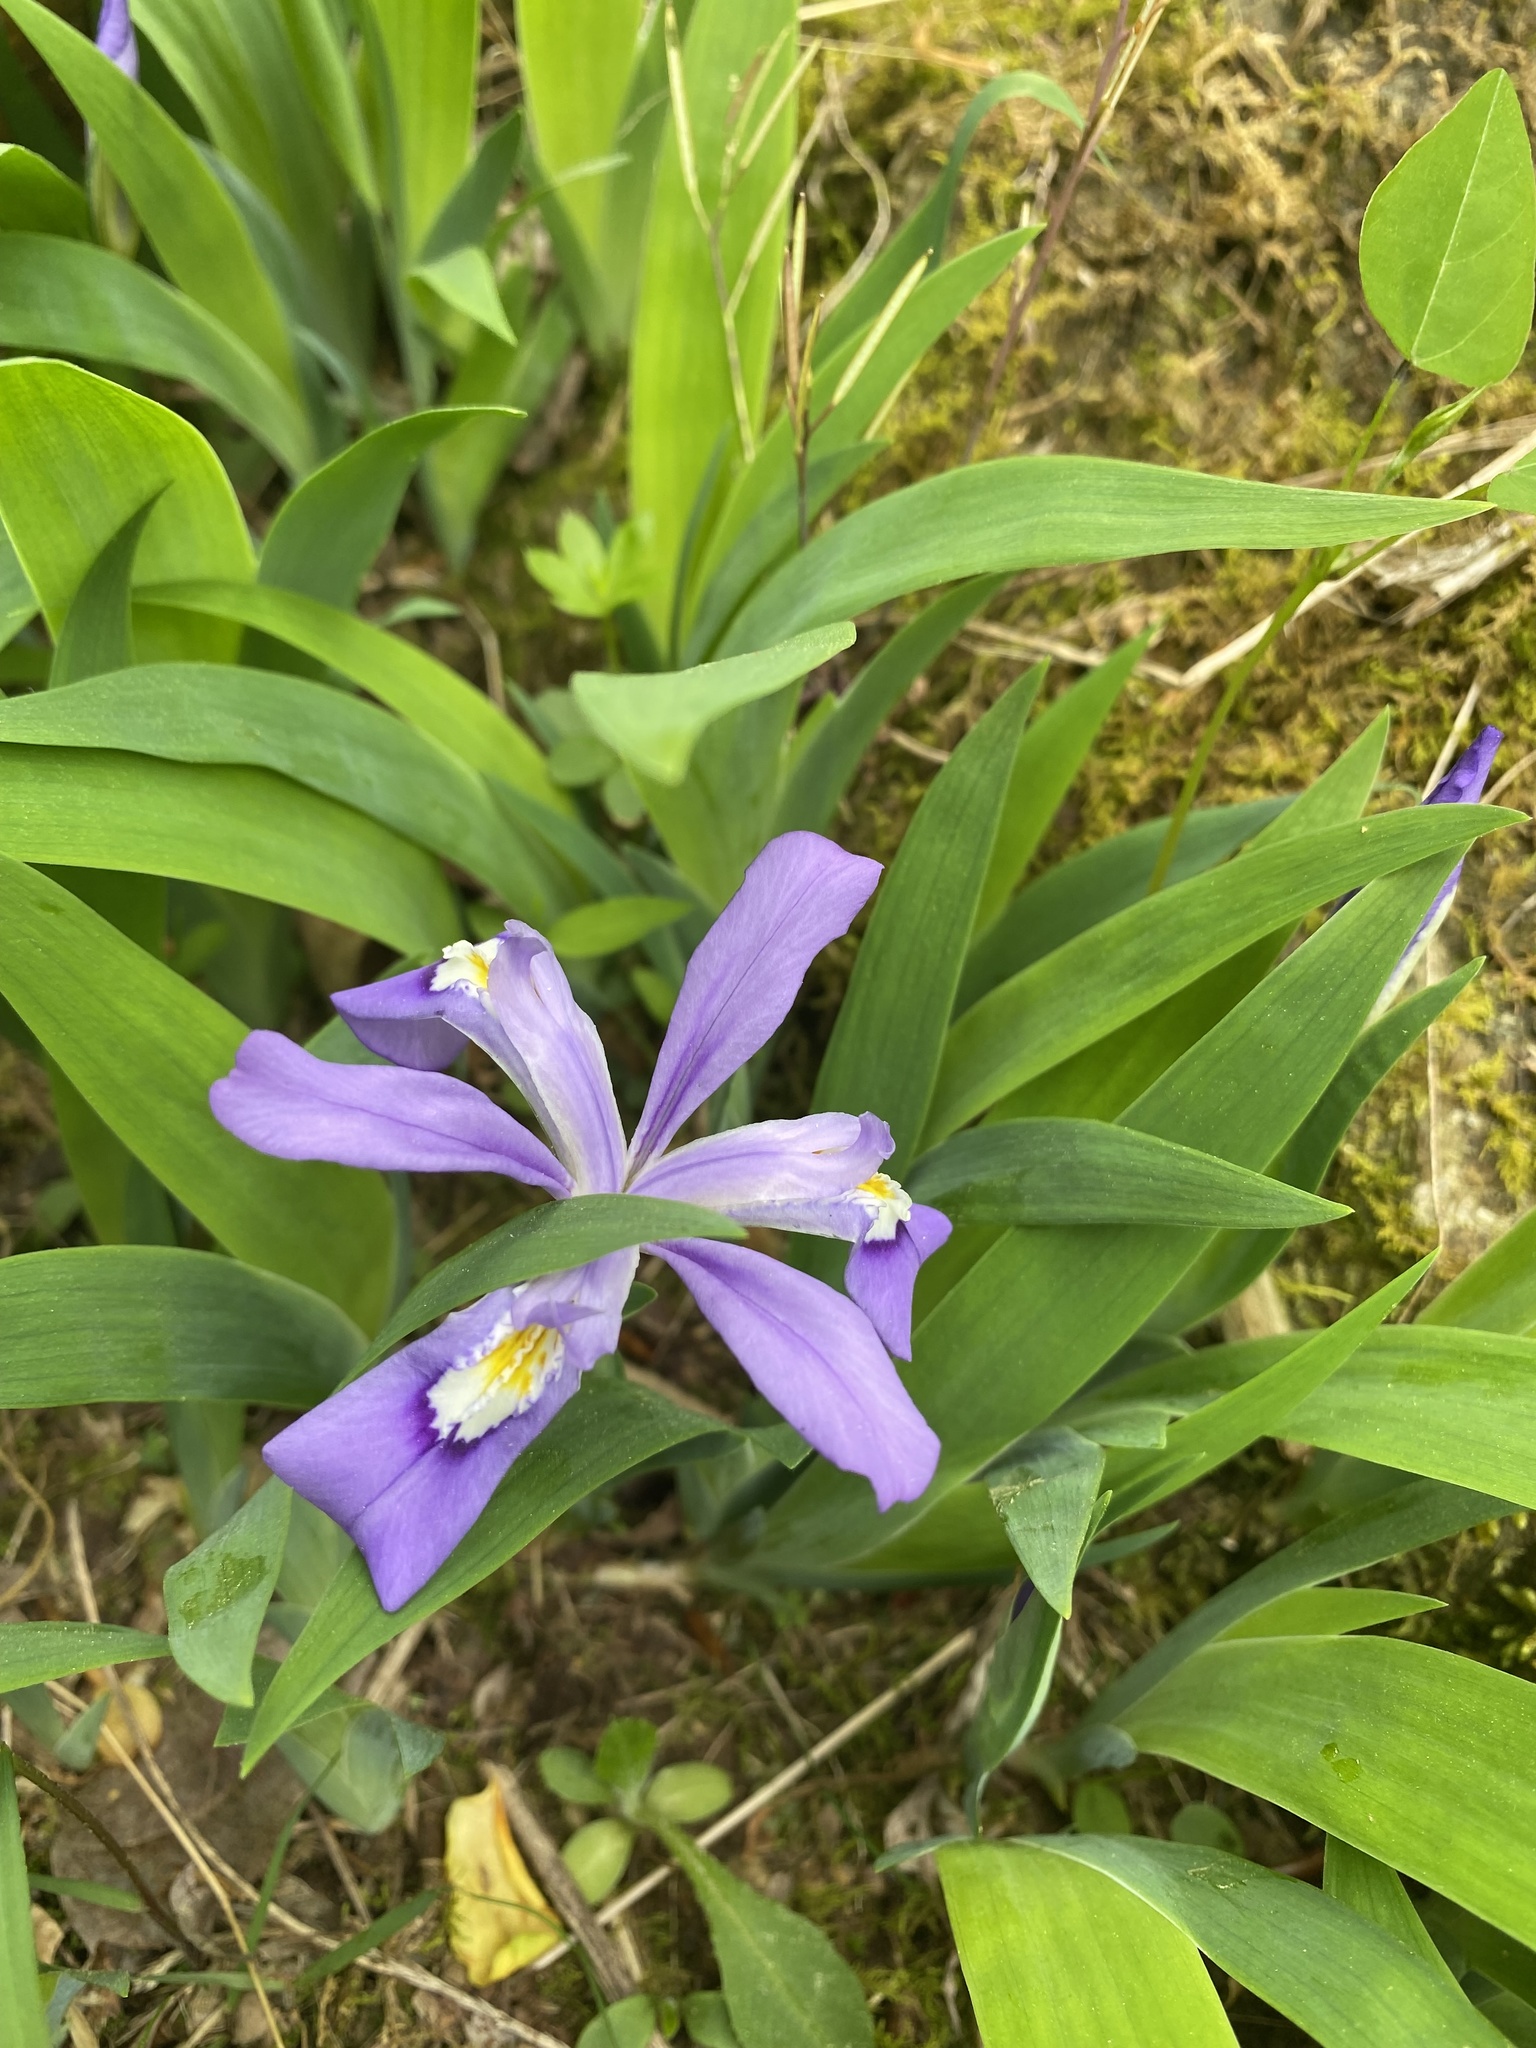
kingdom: Plantae
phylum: Tracheophyta
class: Liliopsida
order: Asparagales
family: Iridaceae
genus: Iris
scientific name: Iris cristata
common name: Crested iris
